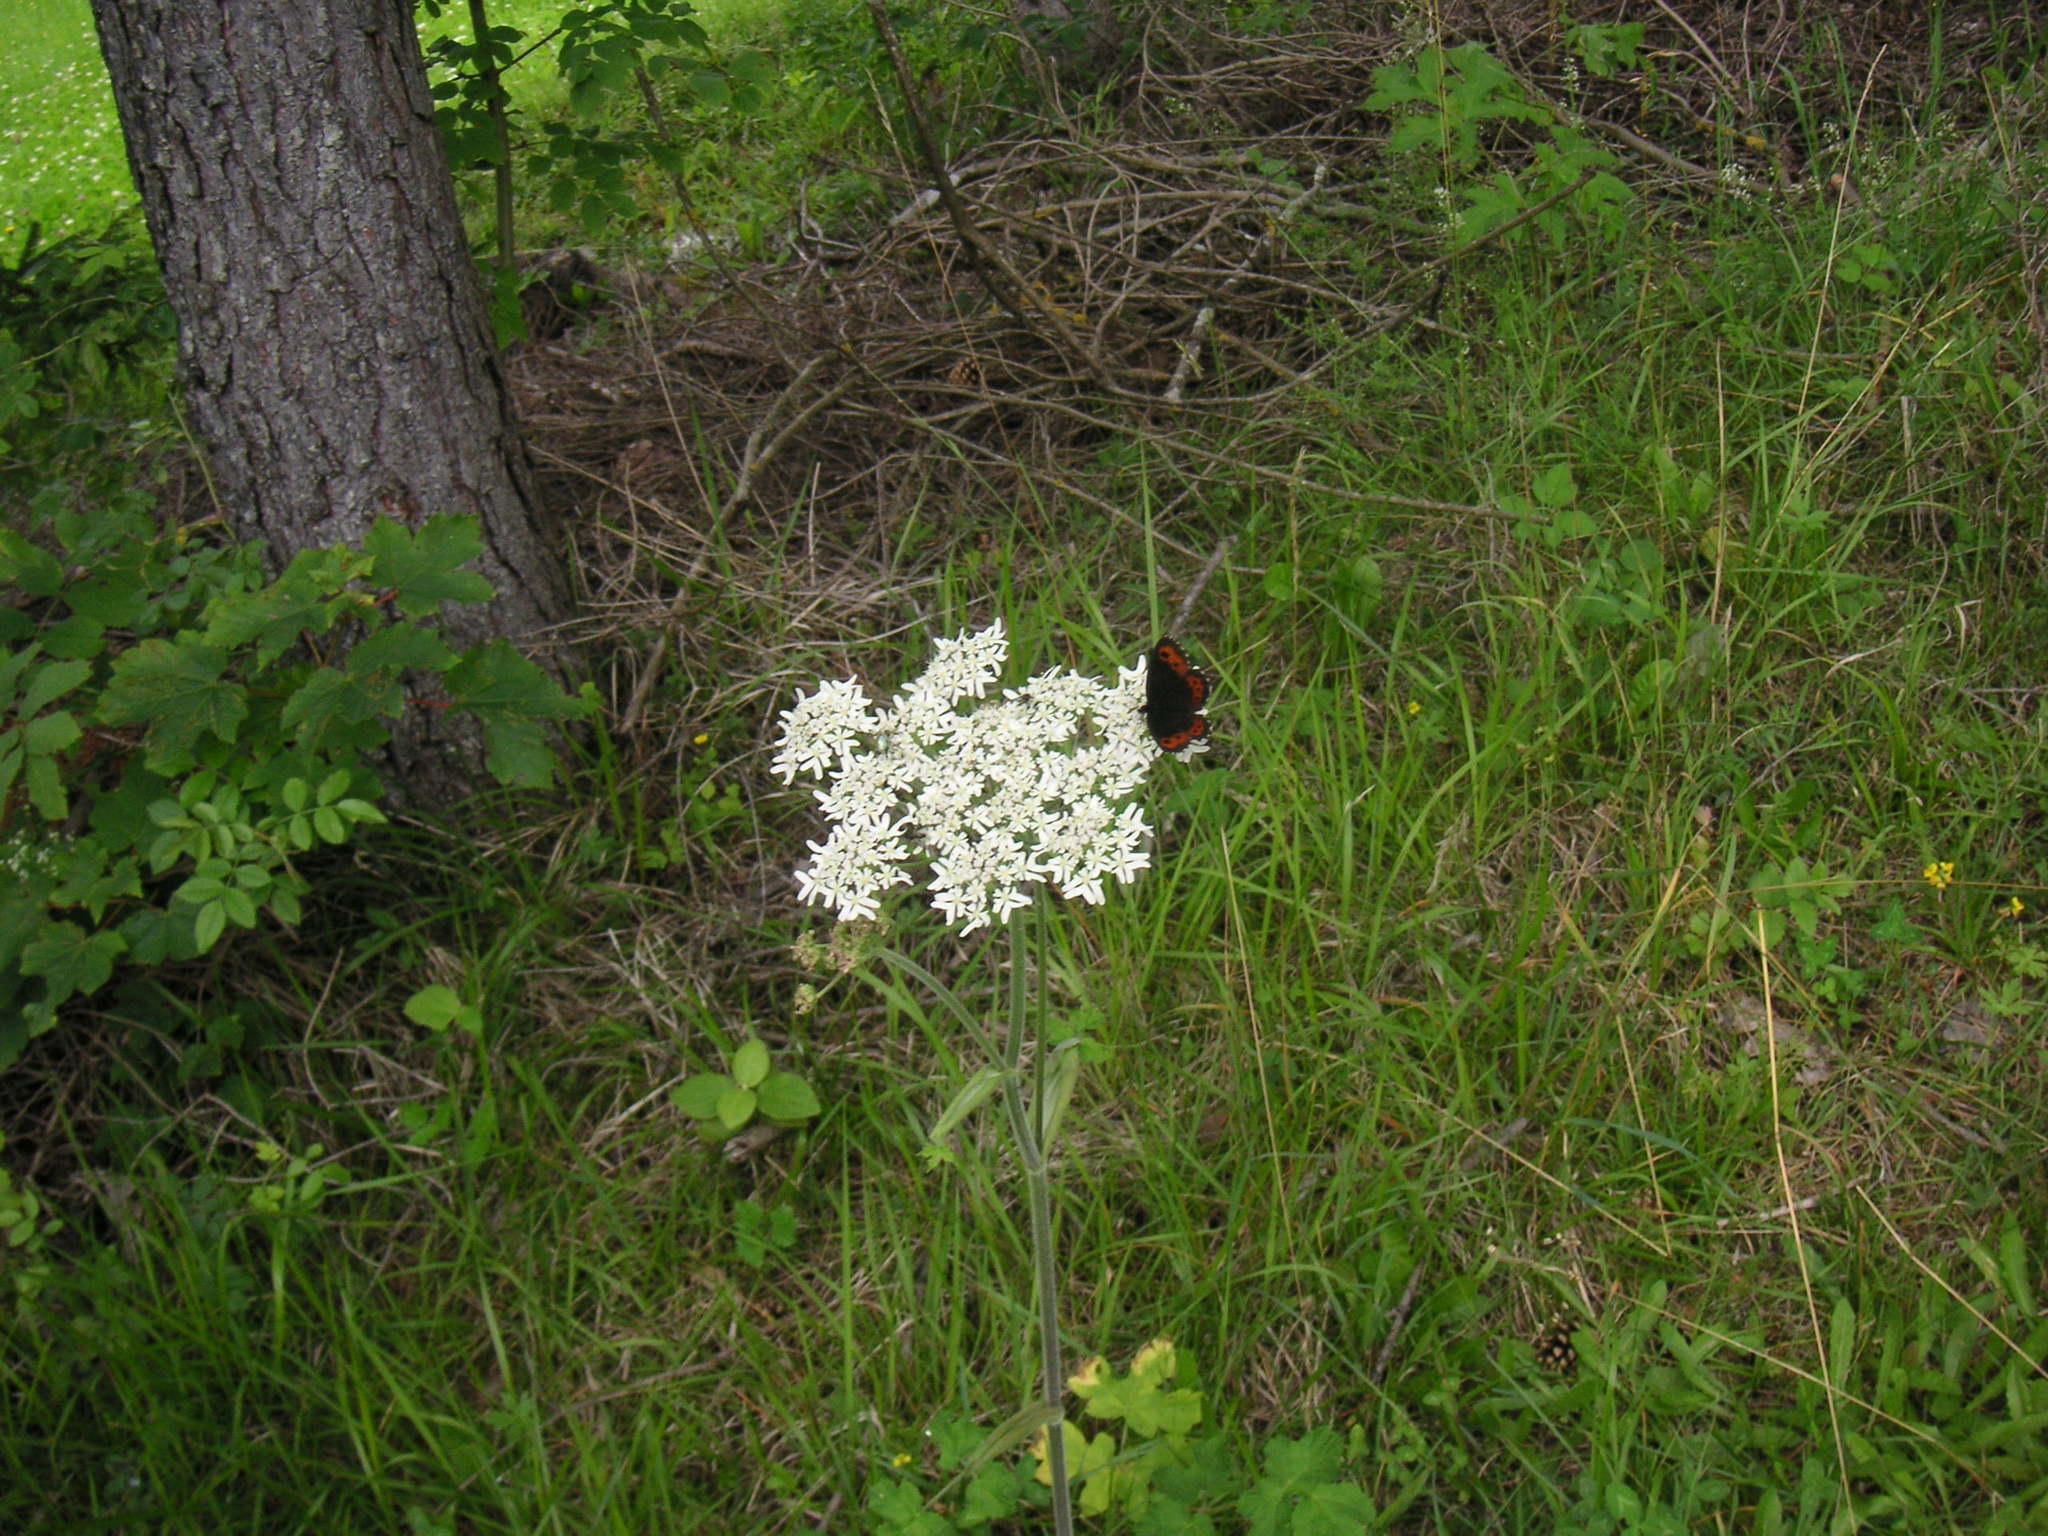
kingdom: Animalia
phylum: Arthropoda
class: Insecta
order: Lepidoptera
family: Nymphalidae
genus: Erebia
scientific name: Erebia euryale
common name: Large ringlet
